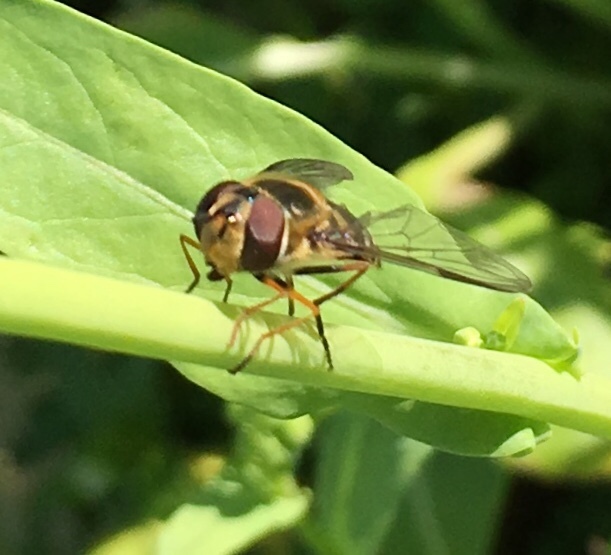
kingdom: Animalia
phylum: Arthropoda
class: Insecta
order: Diptera
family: Syrphidae
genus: Syrphus
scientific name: Syrphus
